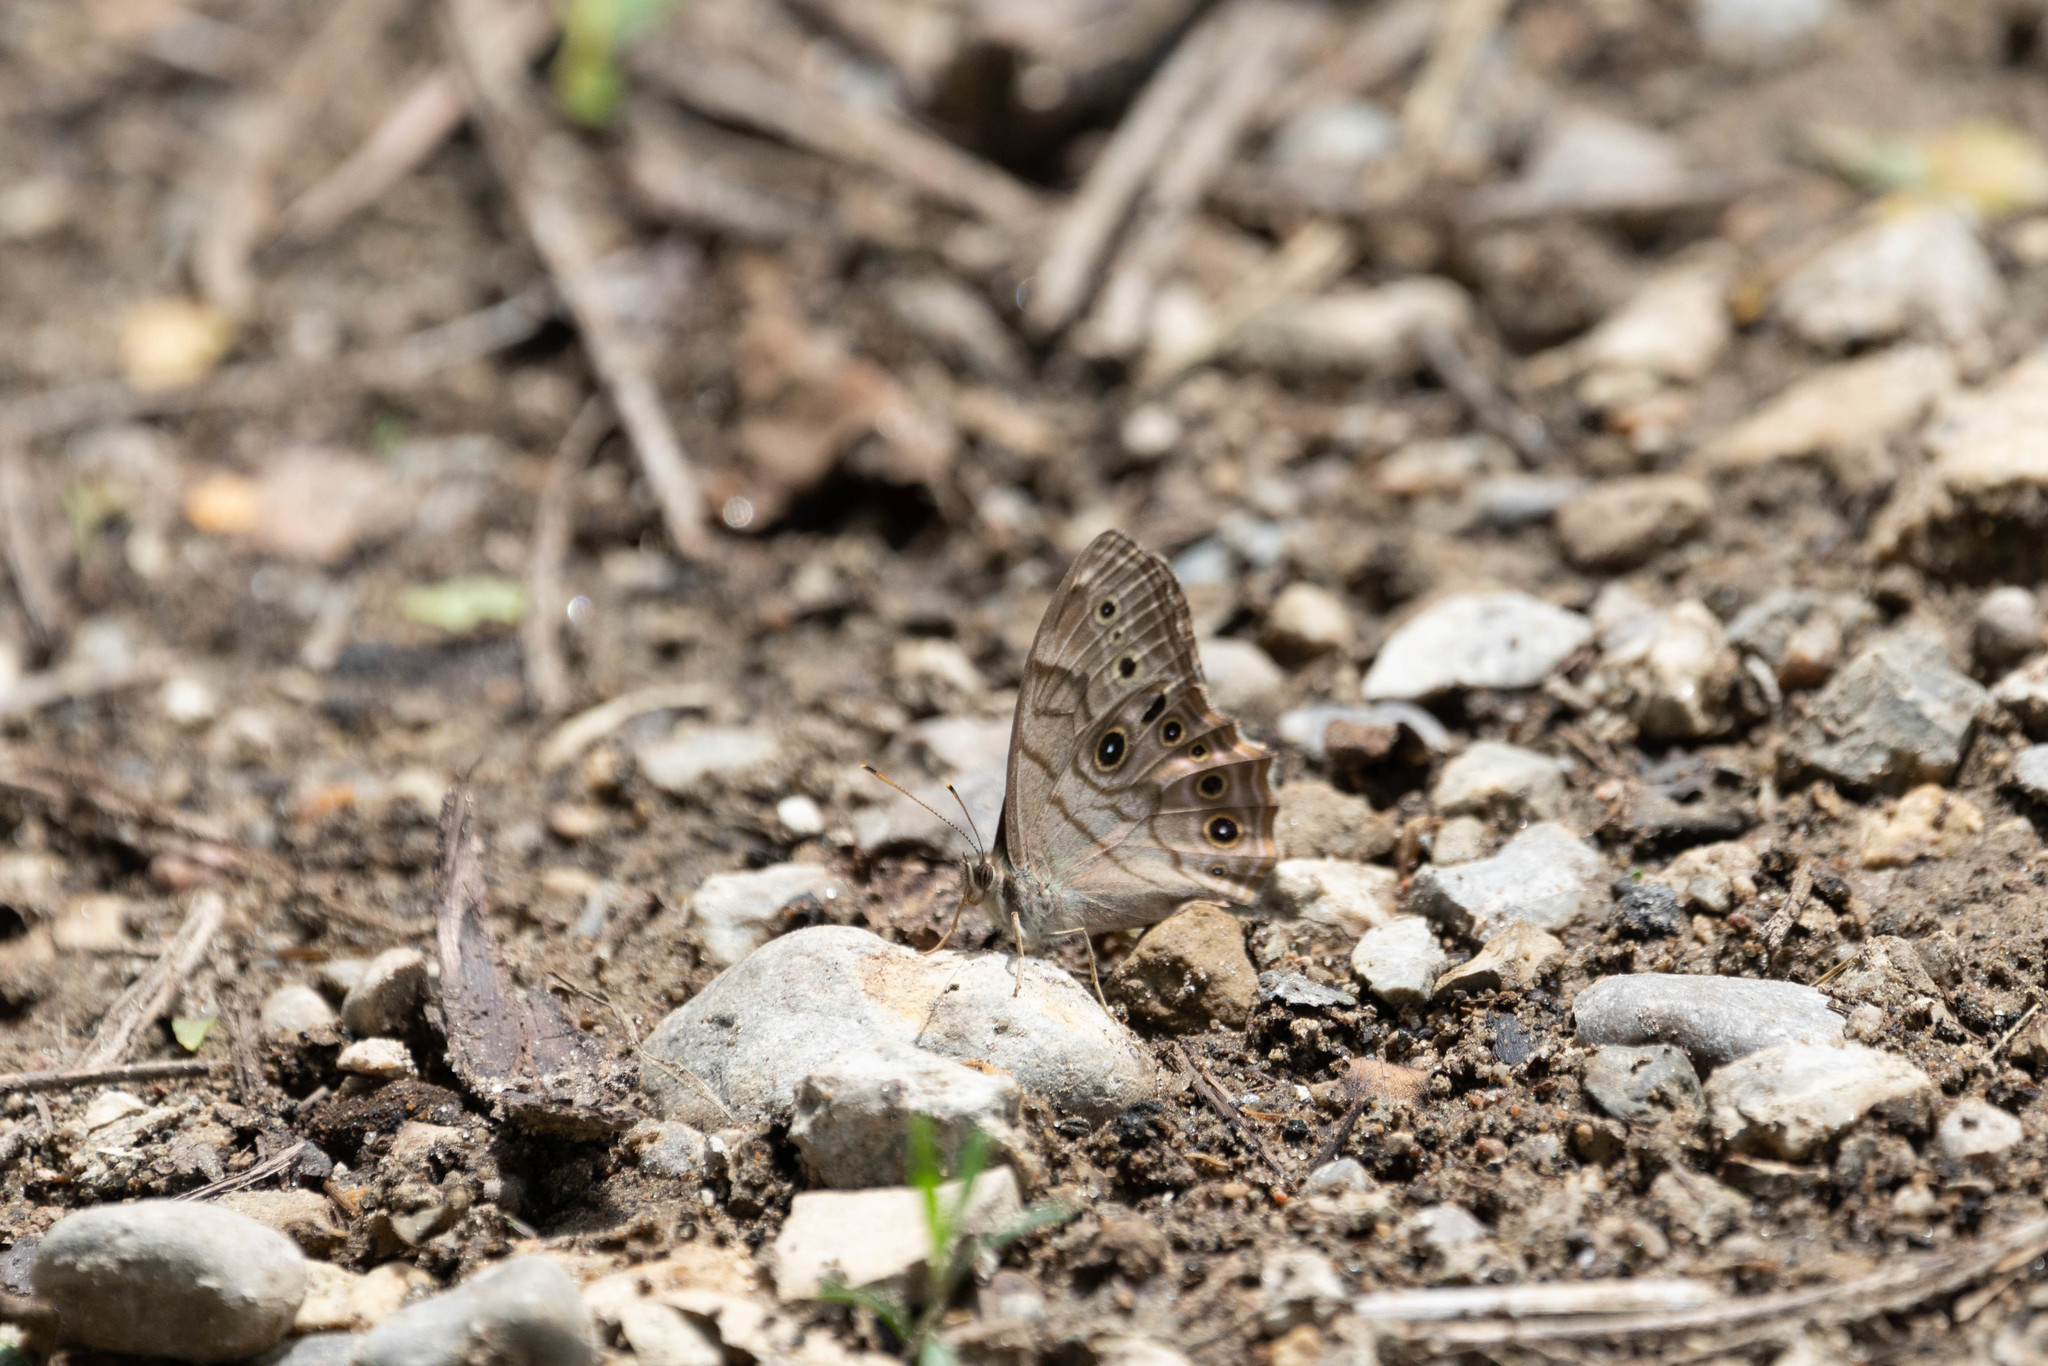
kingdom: Animalia
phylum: Arthropoda
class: Insecta
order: Lepidoptera
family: Nymphalidae
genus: Lethe
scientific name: Lethe anthedon
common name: Northern pearly-eye
